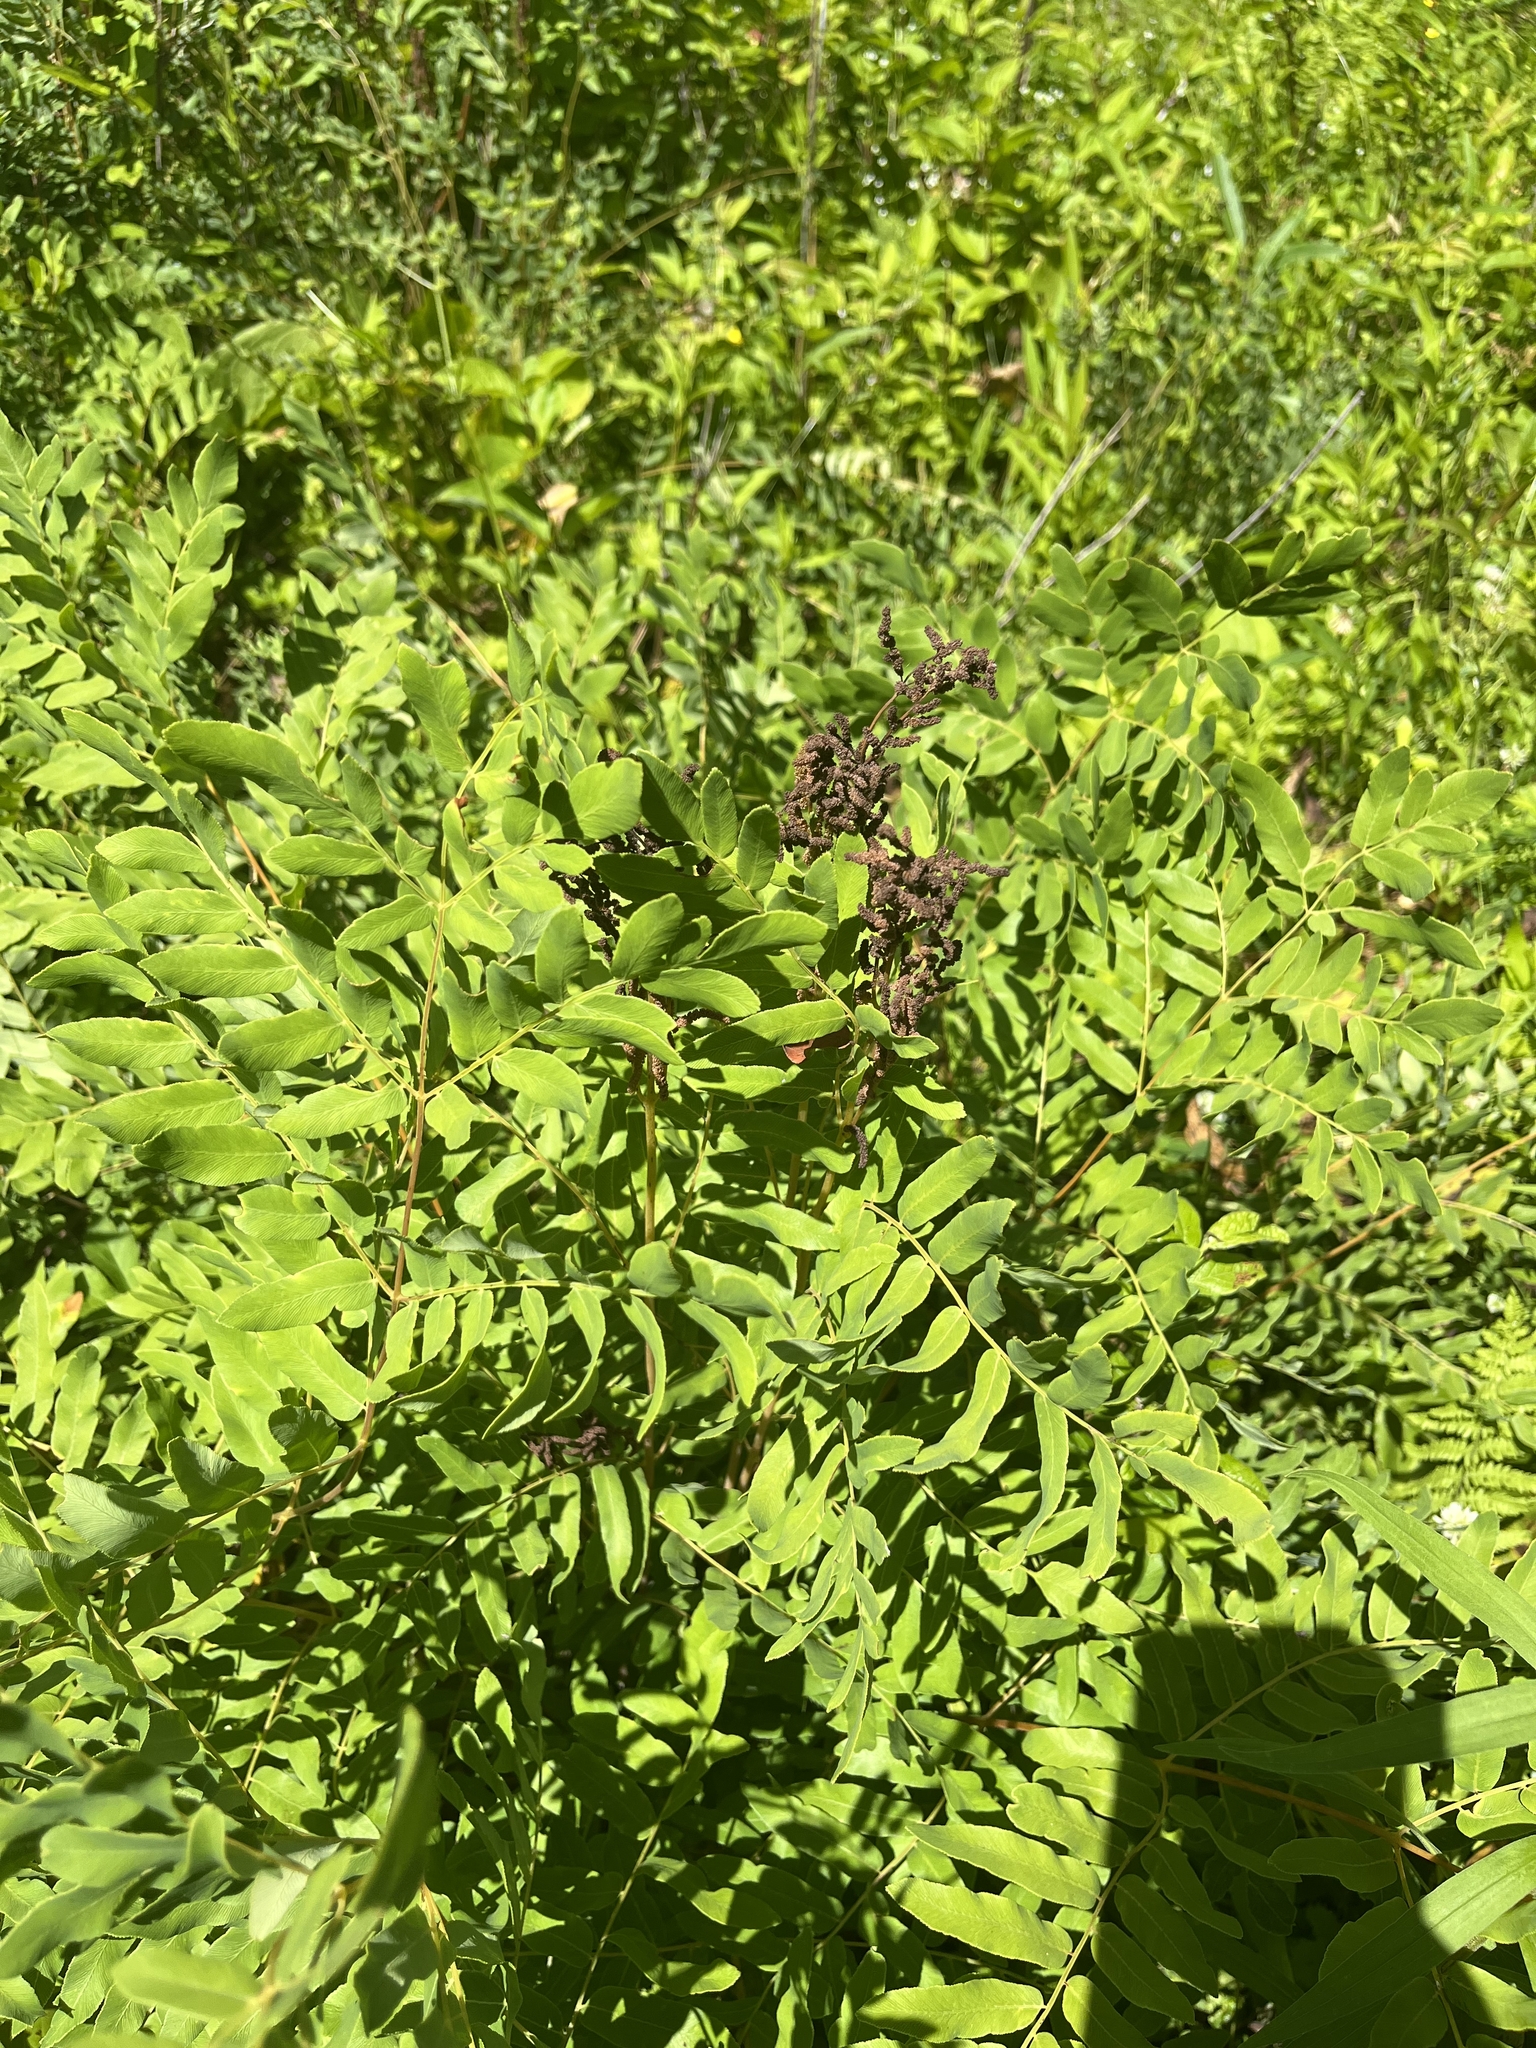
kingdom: Plantae
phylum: Tracheophyta
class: Polypodiopsida
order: Osmundales
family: Osmundaceae
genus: Osmunda
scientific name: Osmunda spectabilis
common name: American royal fern
